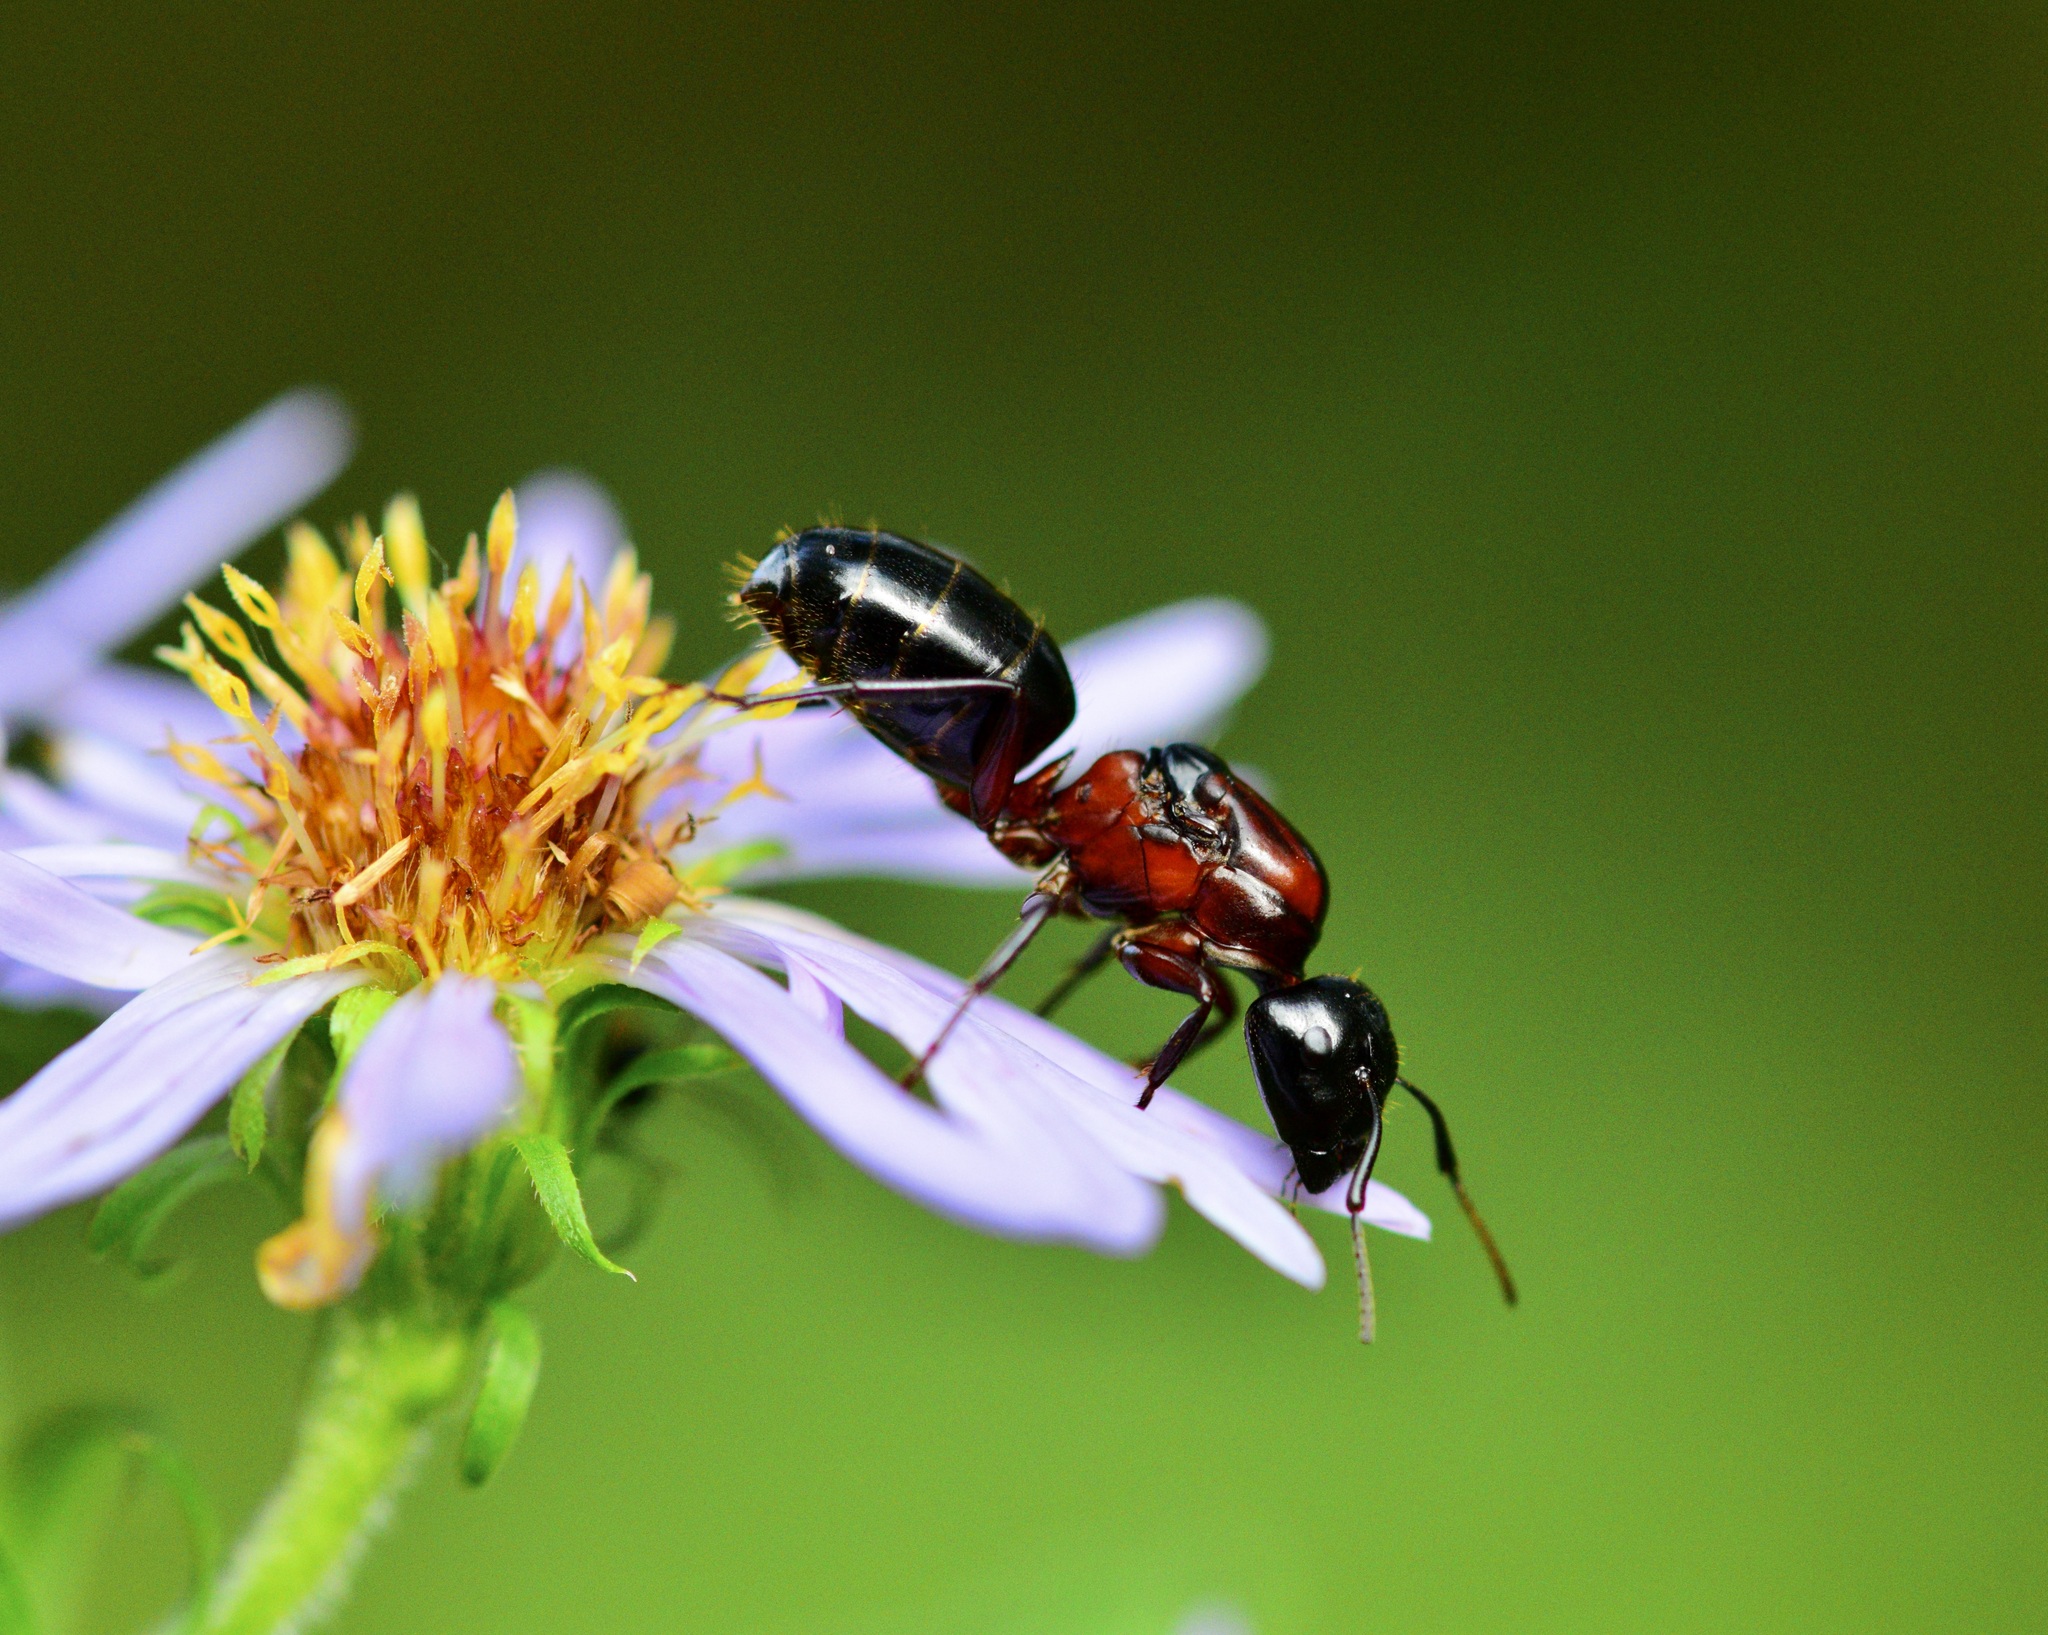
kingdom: Animalia
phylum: Arthropoda
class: Insecta
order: Hymenoptera
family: Formicidae
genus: Camponotus
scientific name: Camponotus novaeboracensis
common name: New york carpenter ant
